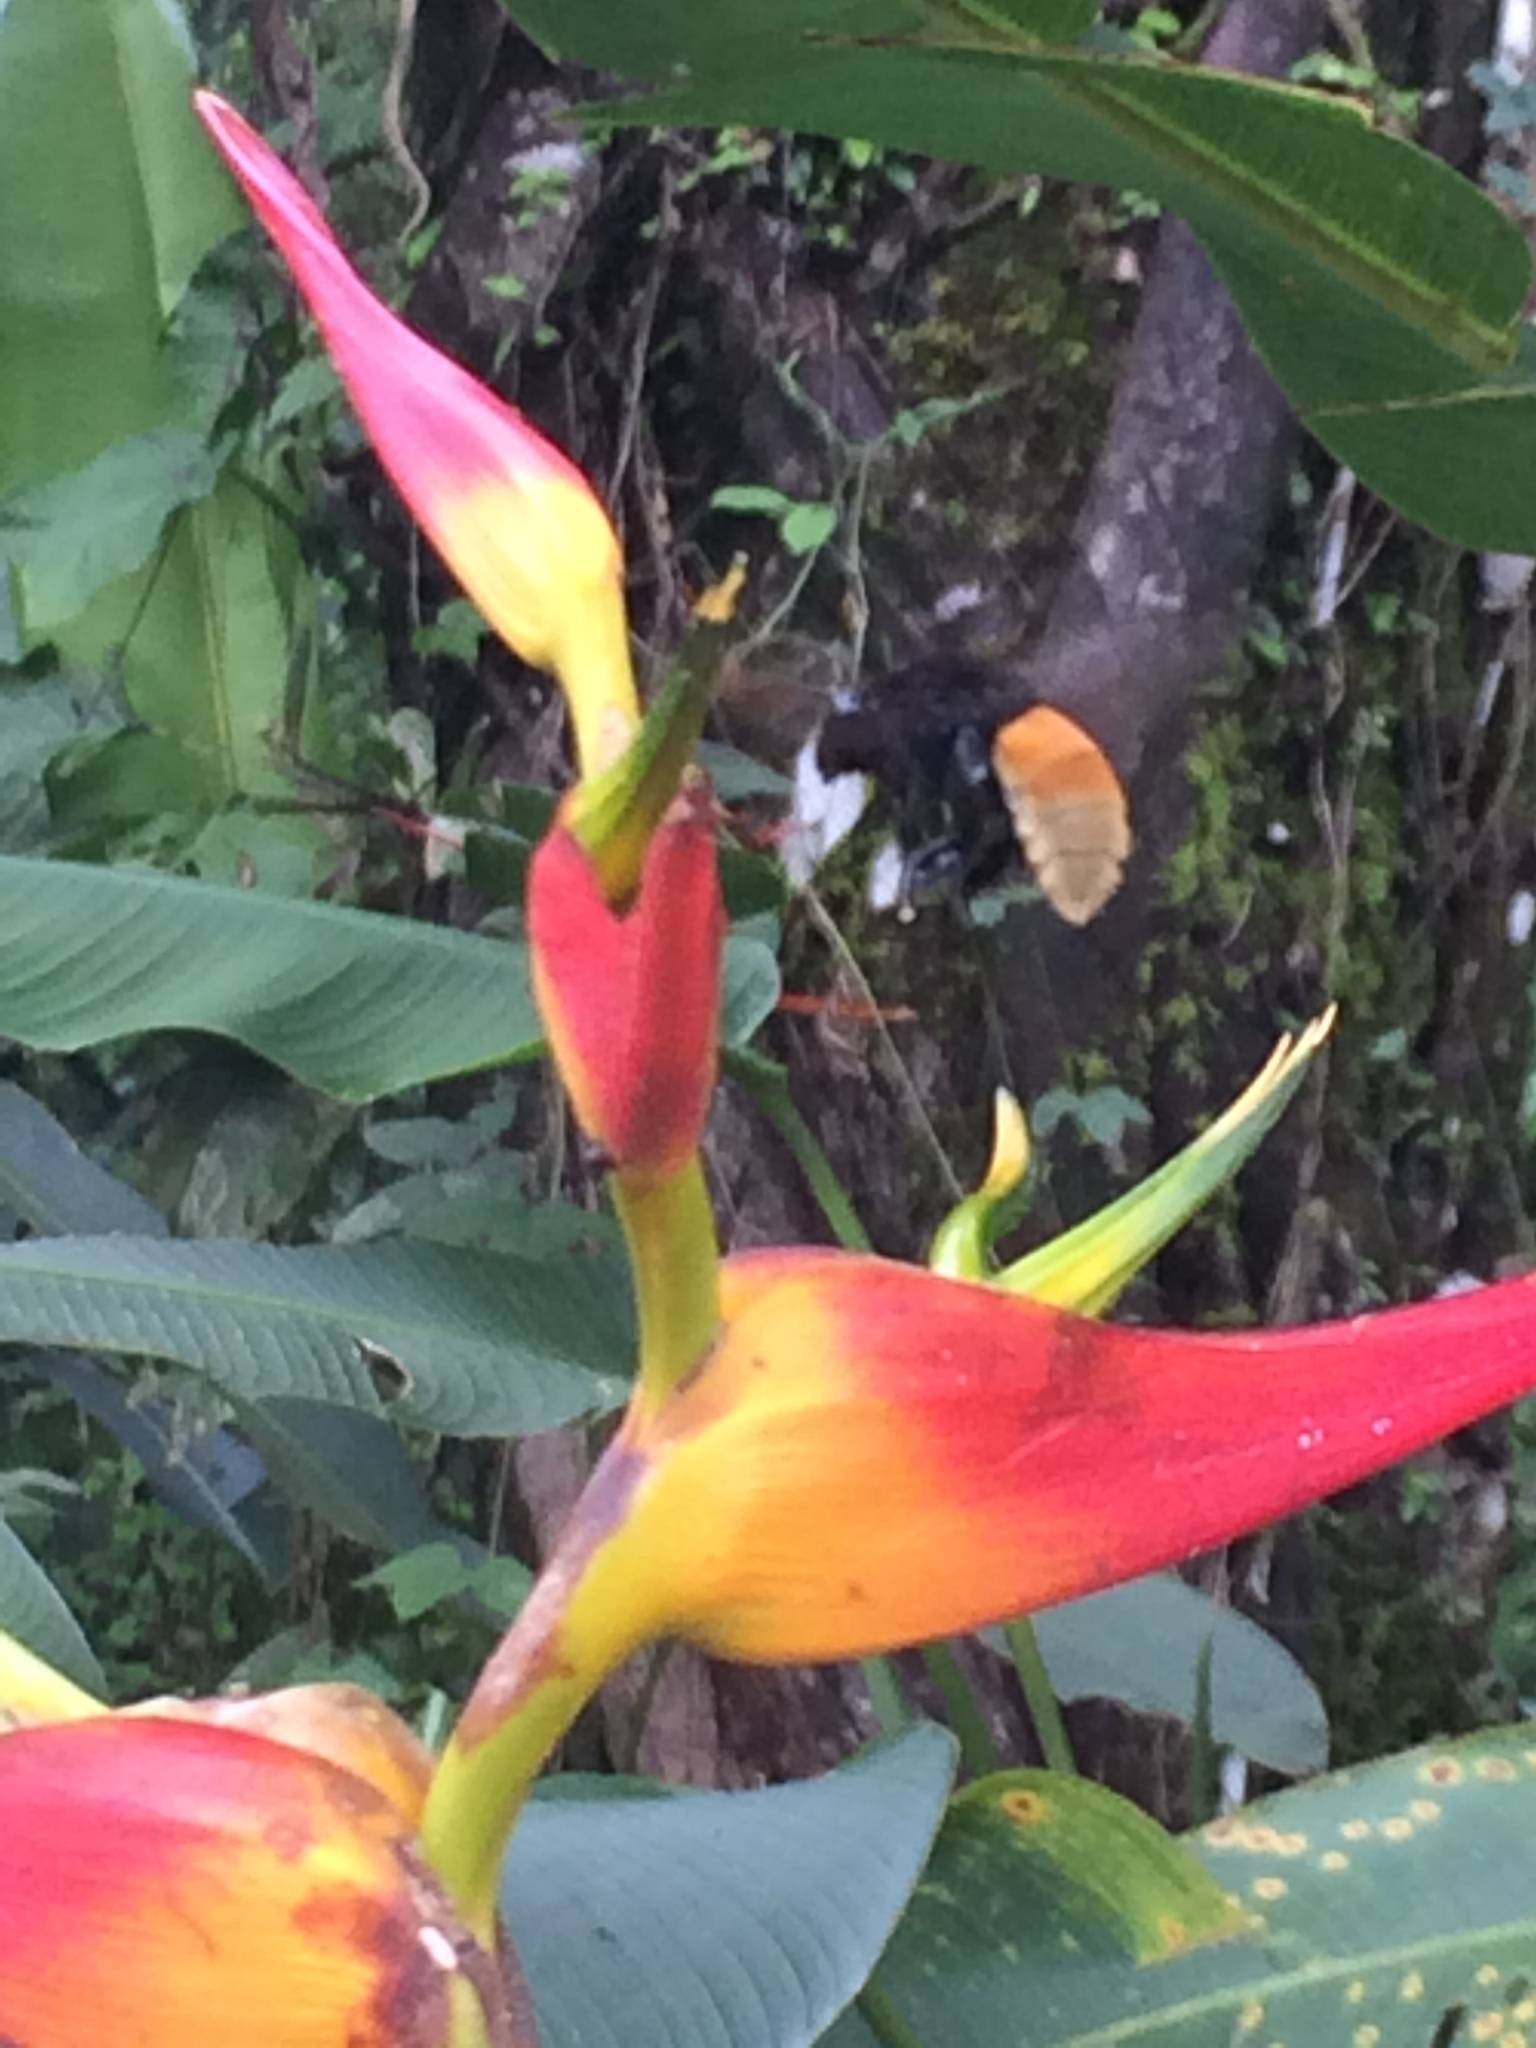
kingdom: Animalia
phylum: Arthropoda
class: Insecta
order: Hymenoptera
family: Apidae
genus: Eulaema
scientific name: Eulaema polychroma
